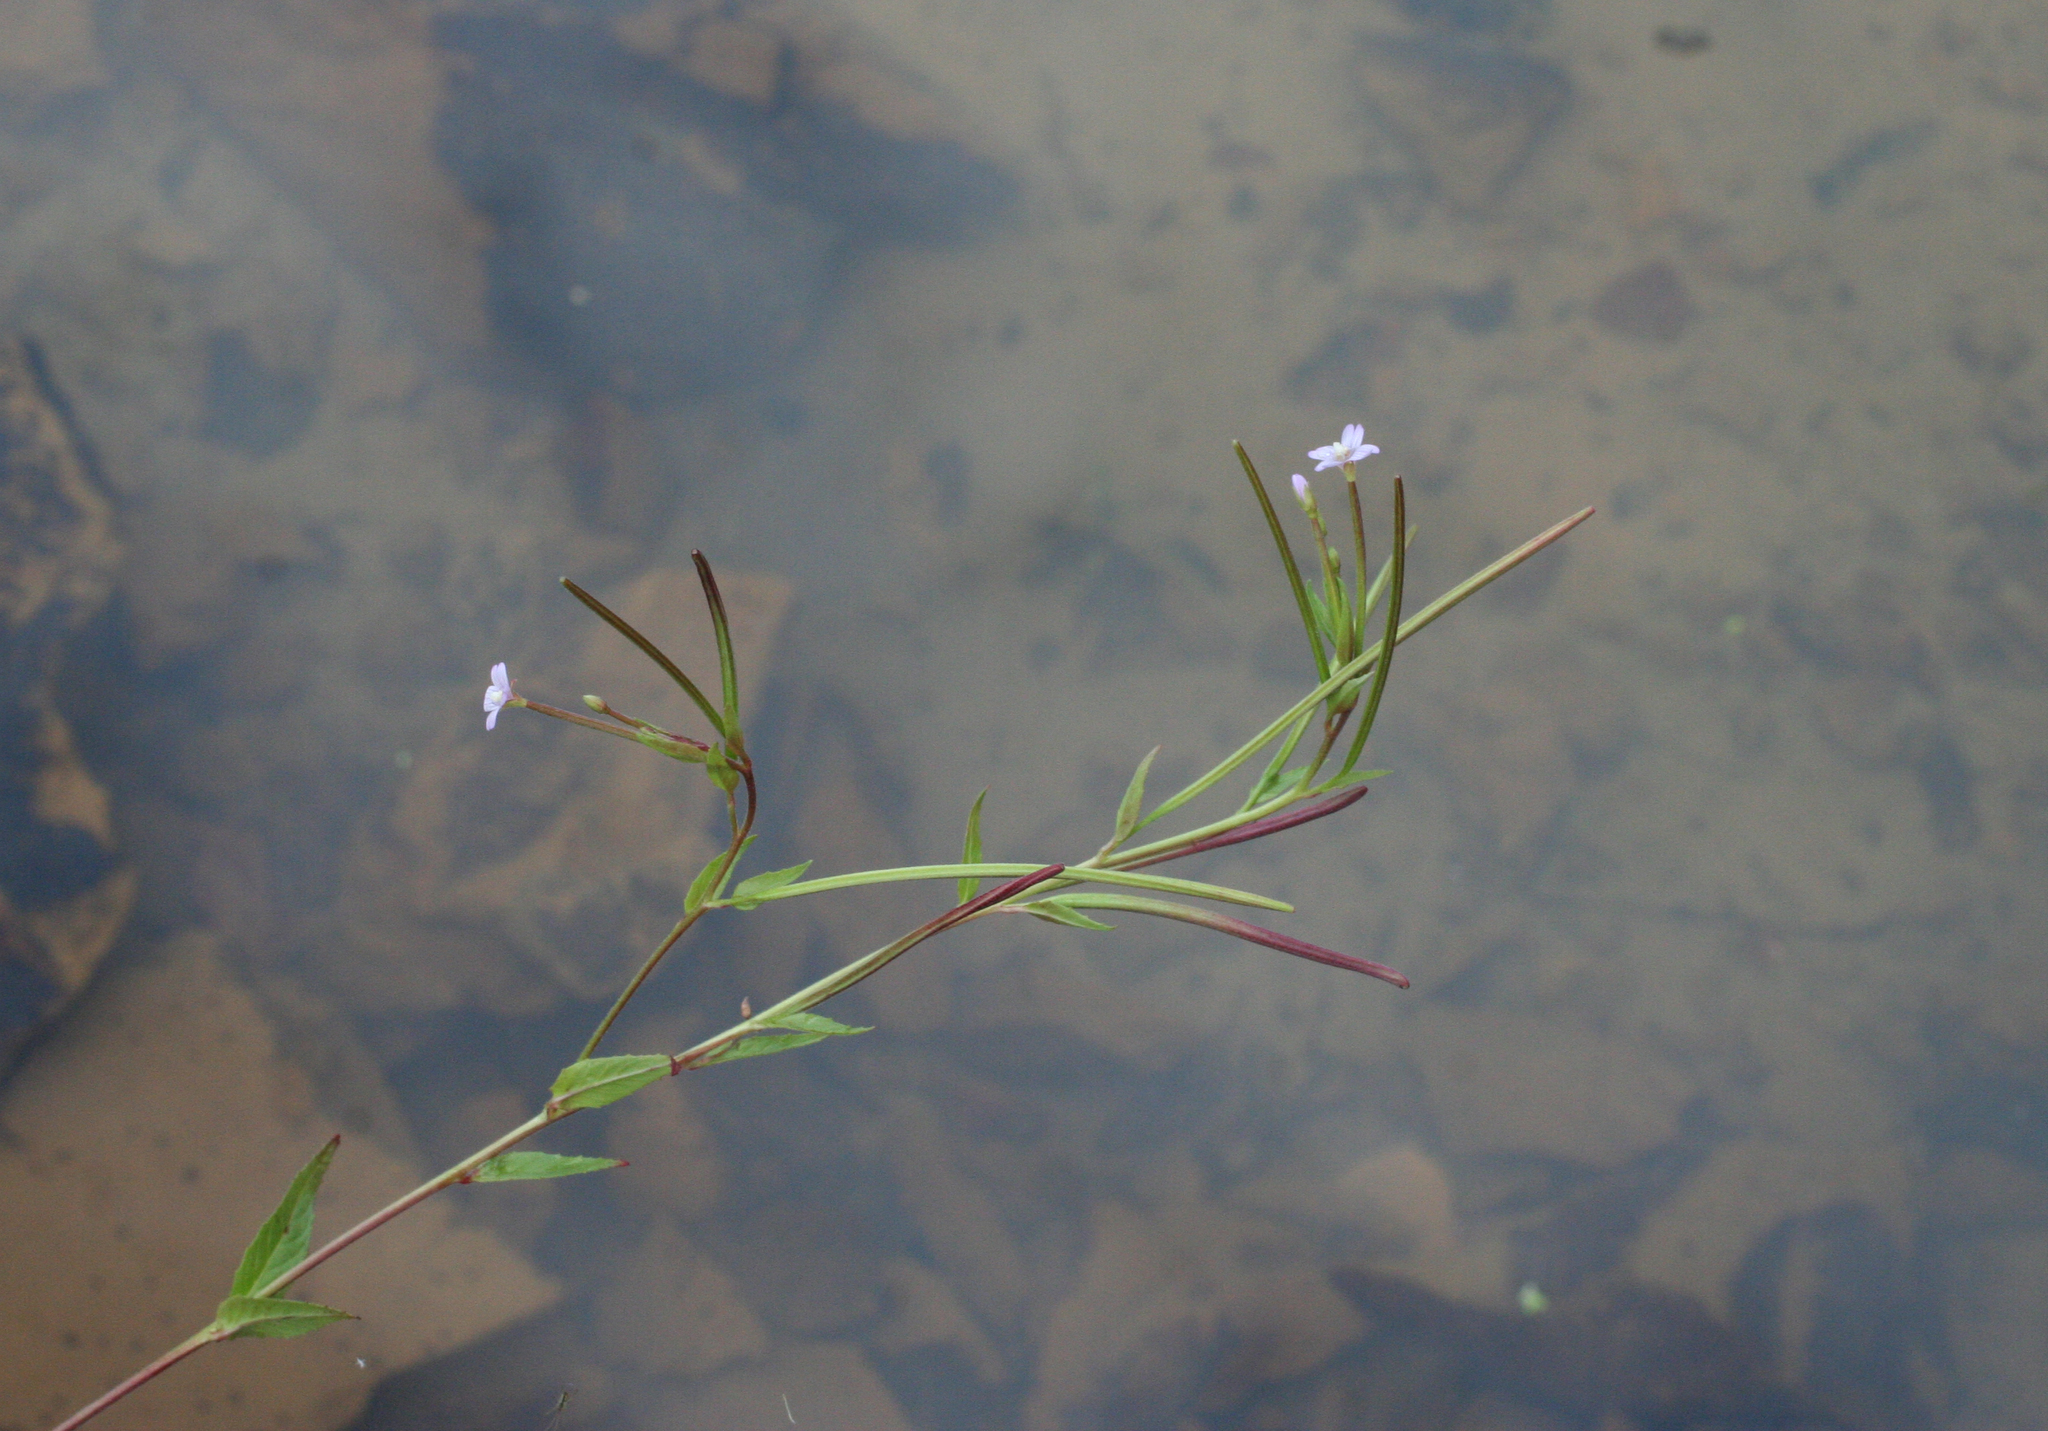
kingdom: Plantae
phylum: Tracheophyta
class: Magnoliopsida
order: Myrtales
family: Onagraceae
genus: Epilobium
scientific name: Epilobium ciliatum
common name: American willowherb
